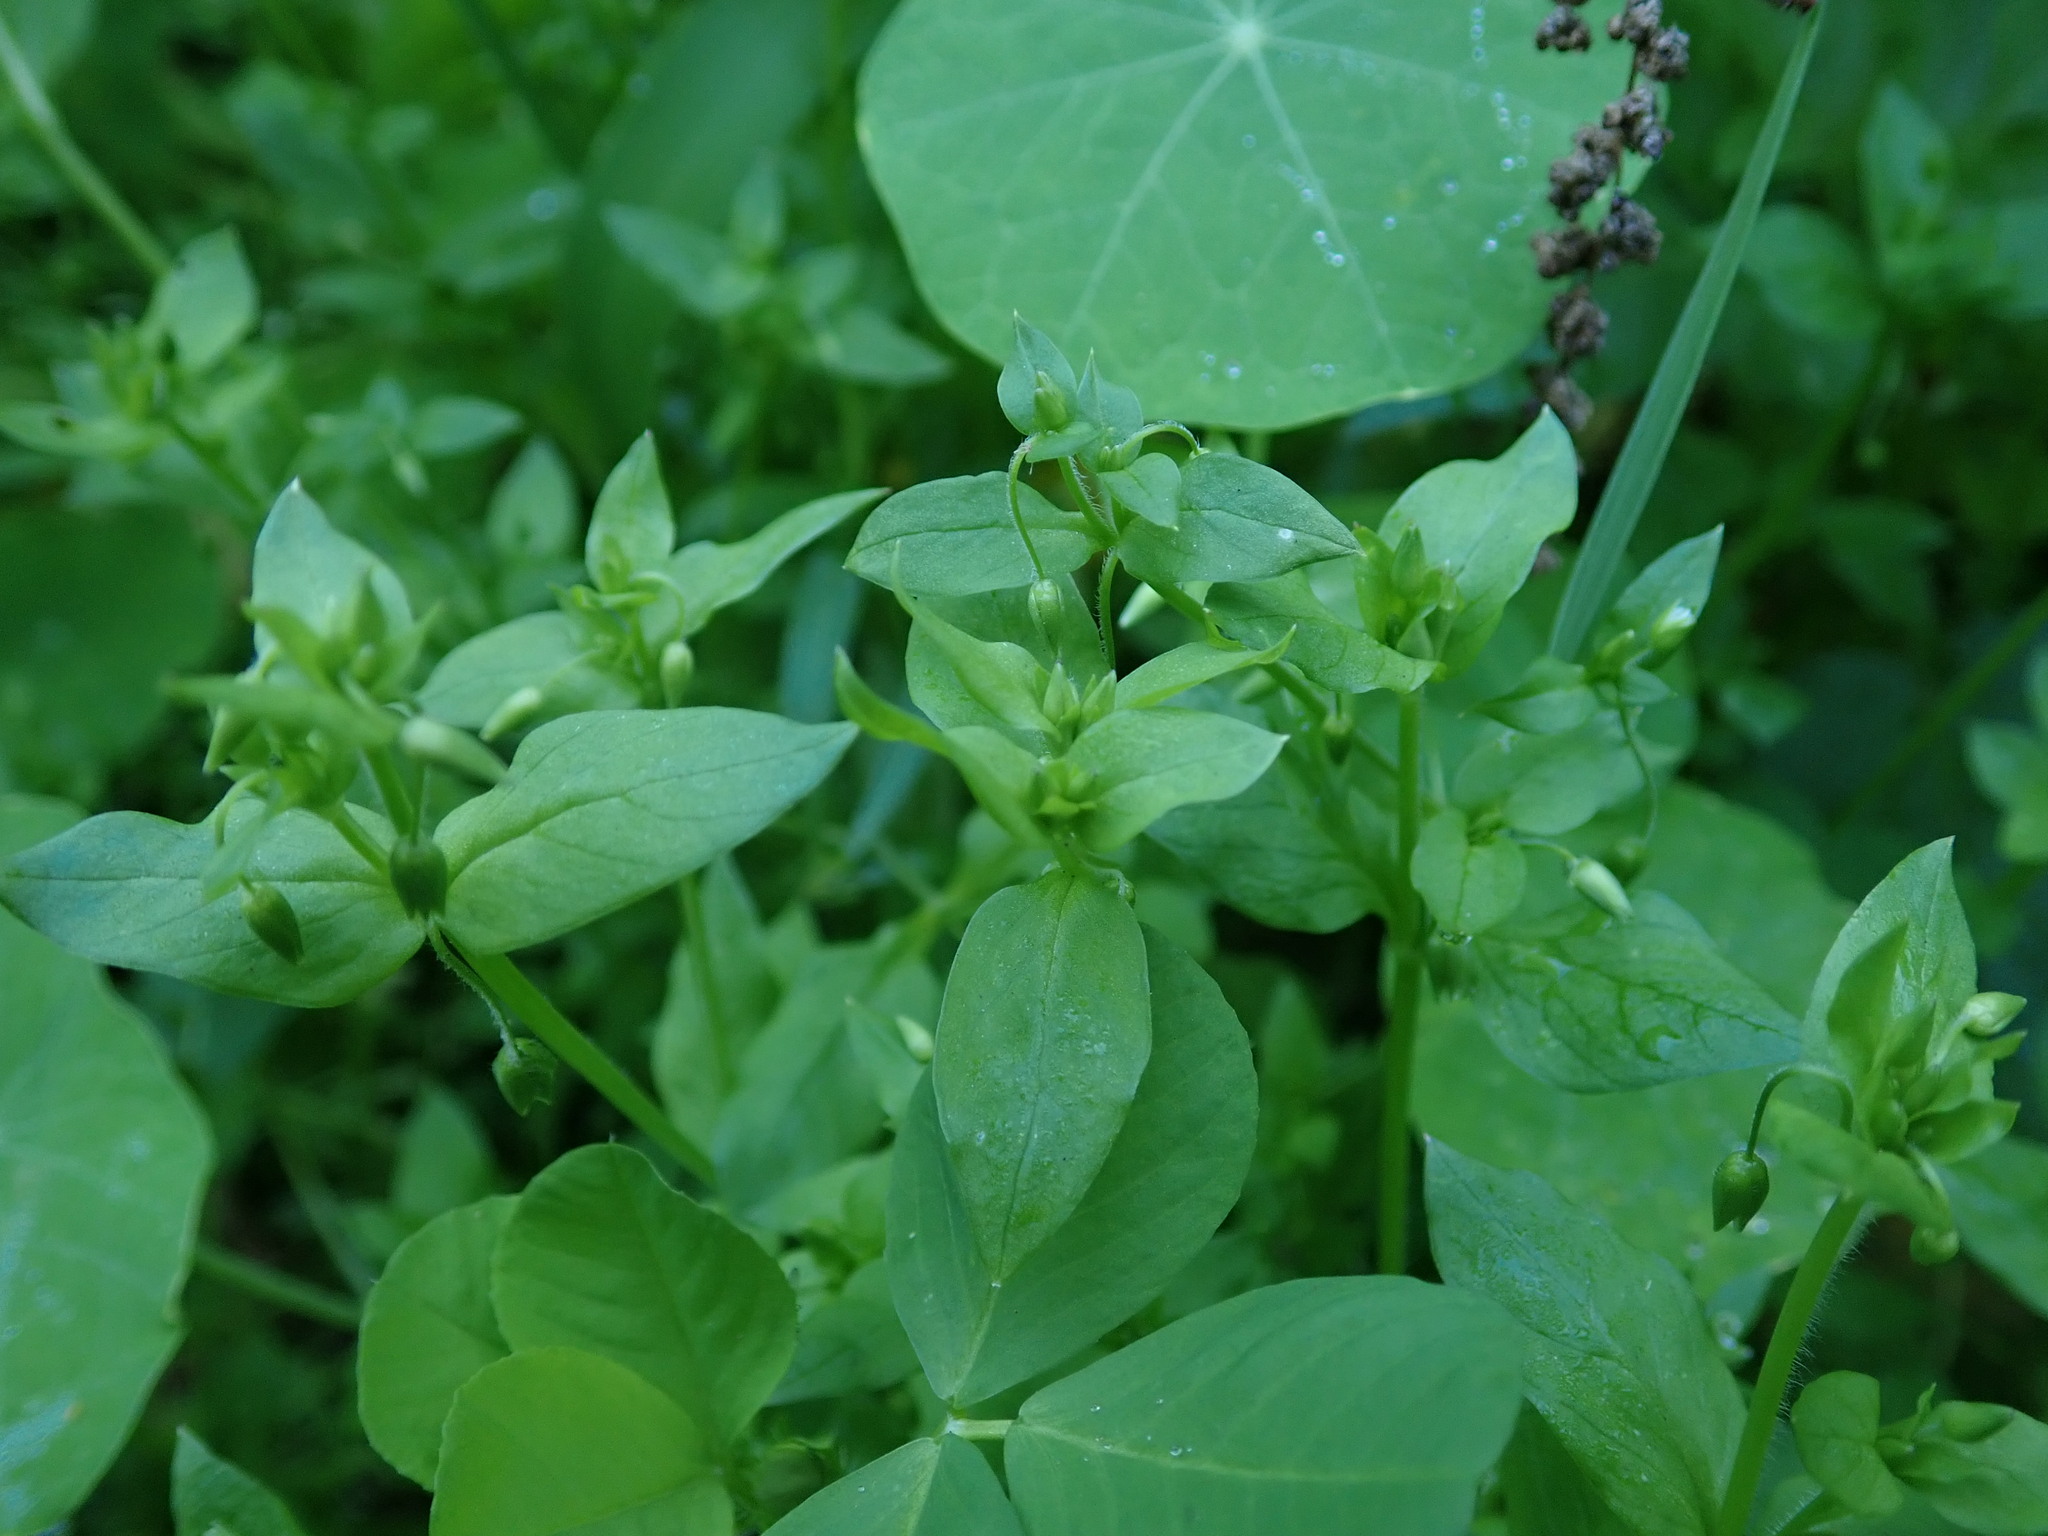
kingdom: Plantae
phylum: Tracheophyta
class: Magnoliopsida
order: Caryophyllales
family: Caryophyllaceae
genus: Stellaria
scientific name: Stellaria media
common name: Common chickweed
